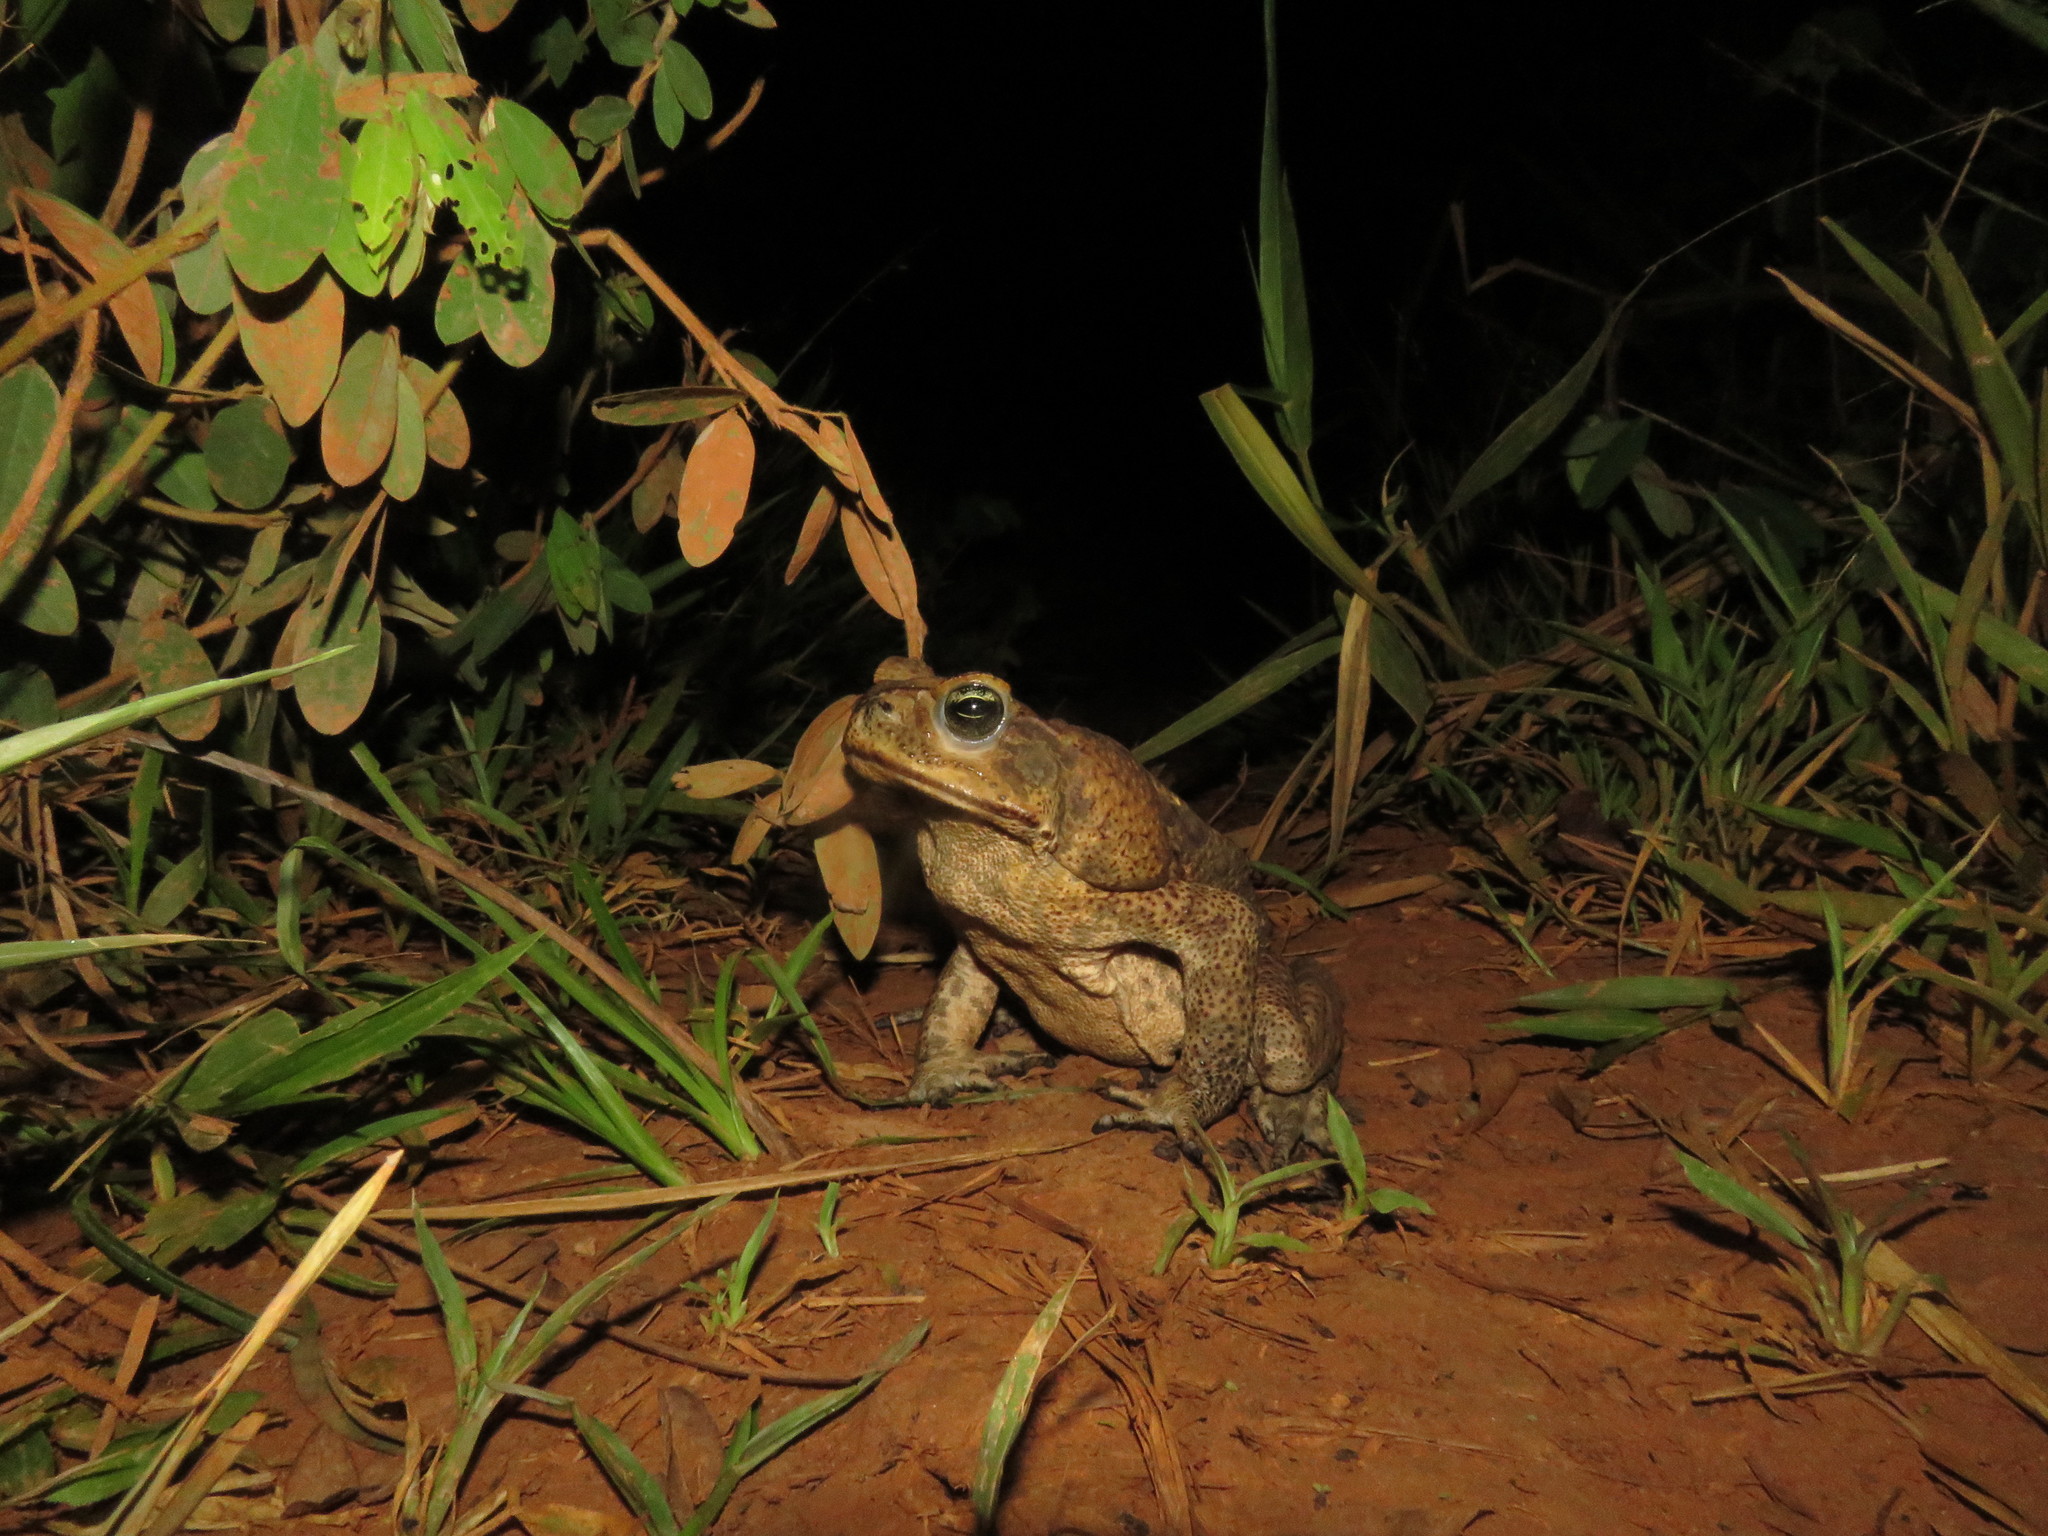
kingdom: Animalia
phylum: Chordata
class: Amphibia
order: Anura
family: Bufonidae
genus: Rhinella
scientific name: Rhinella diptycha
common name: Cope's toad
